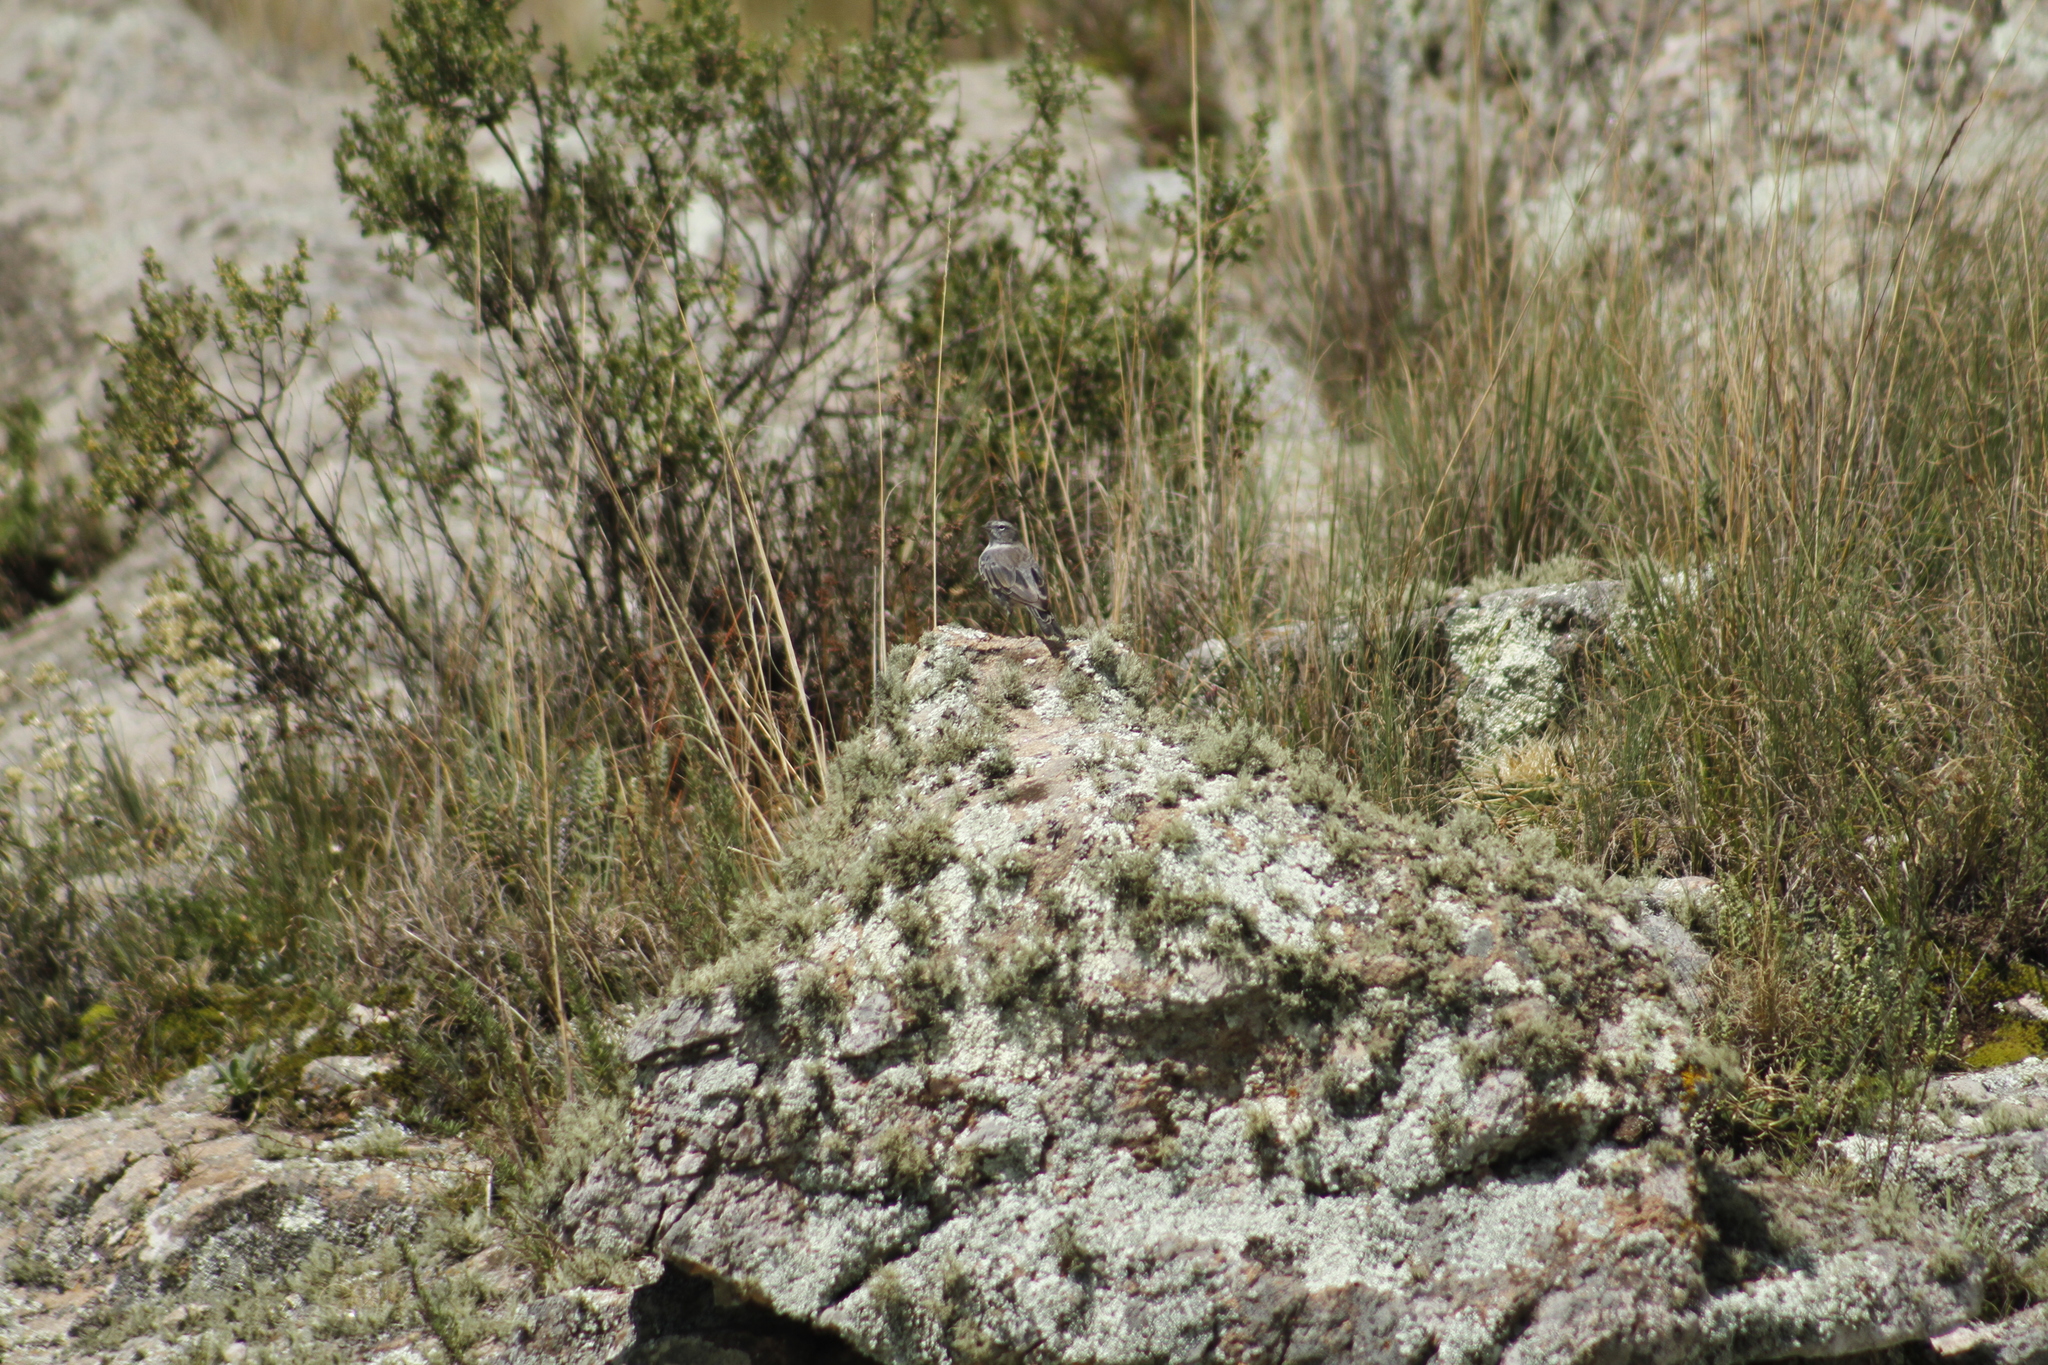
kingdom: Animalia
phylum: Chordata
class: Aves
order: Passeriformes
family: Thraupidae
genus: Geospizopsis
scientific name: Geospizopsis plebejus
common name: Ash-breasted sierra-finch
